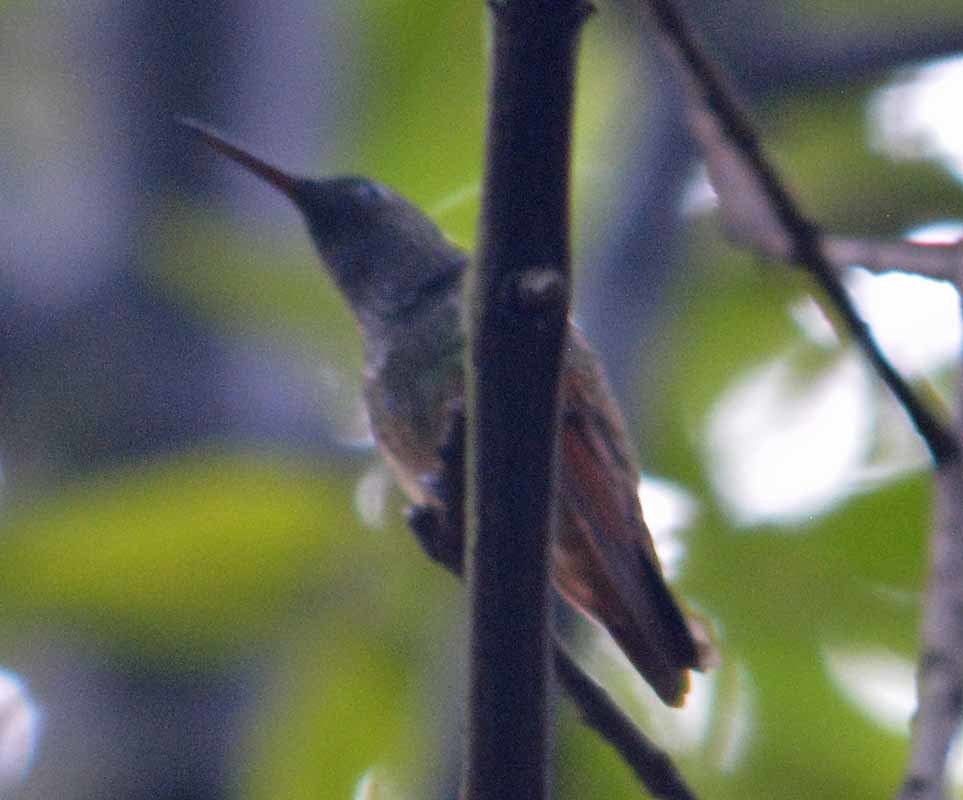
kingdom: Animalia
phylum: Chordata
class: Aves
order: Apodiformes
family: Trochilidae
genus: Saucerottia
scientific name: Saucerottia beryllina
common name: Berylline hummingbird
